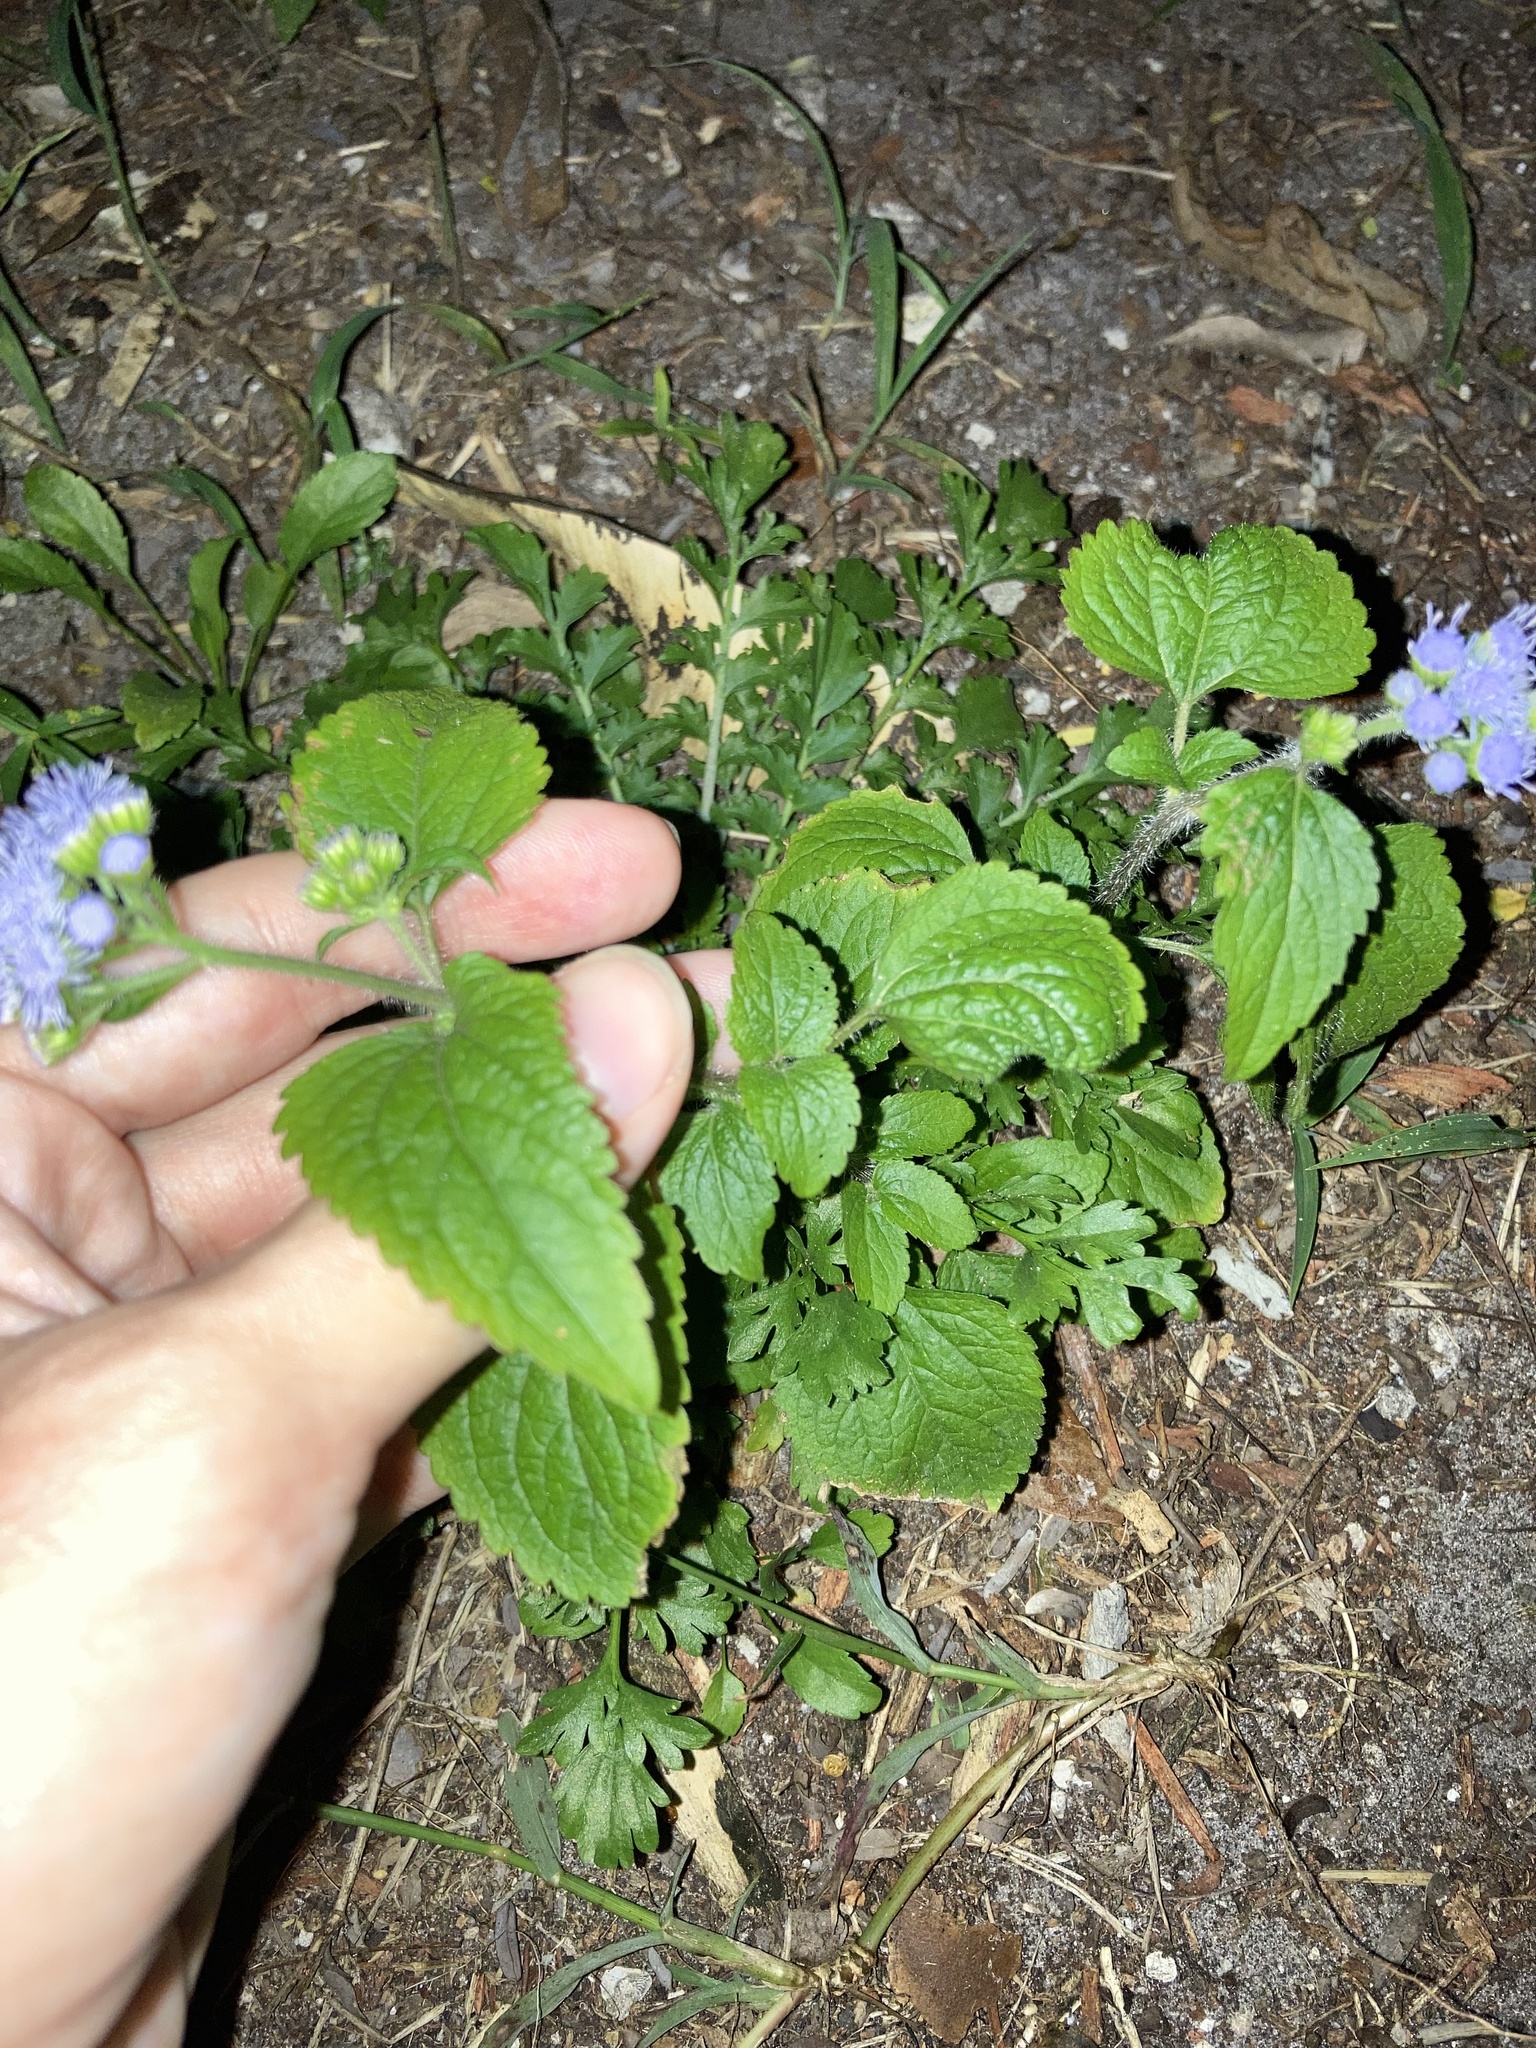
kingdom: Plantae
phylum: Tracheophyta
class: Magnoliopsida
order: Asterales
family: Asteraceae
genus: Ageratum
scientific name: Ageratum houstonianum
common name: Bluemink
